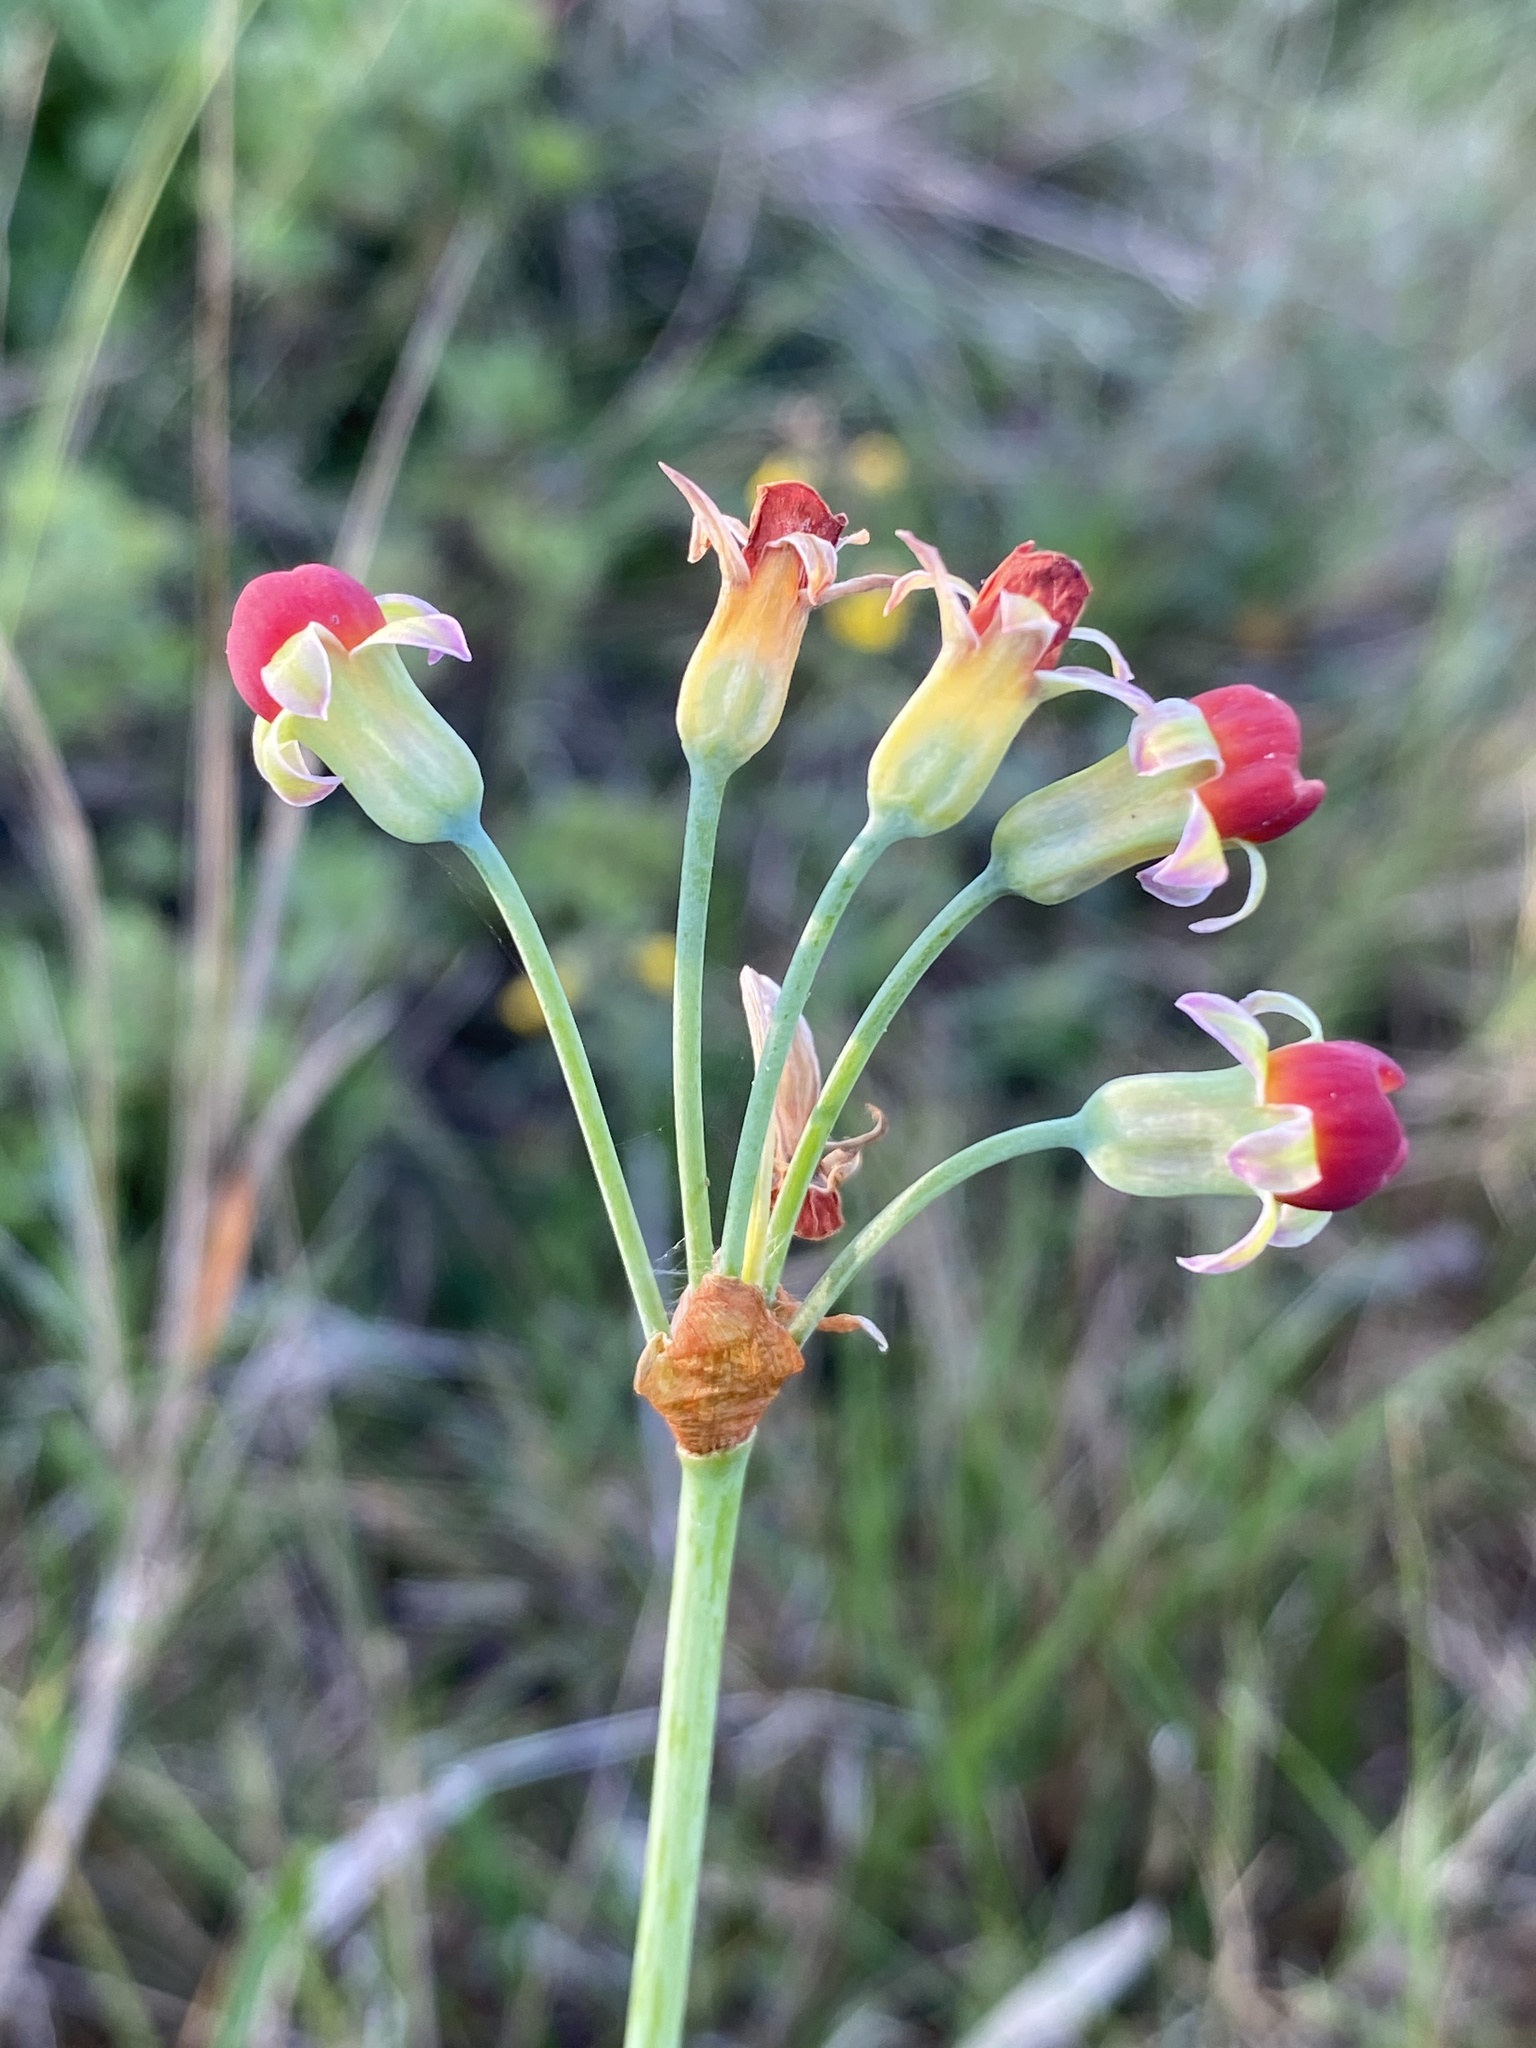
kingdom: Plantae
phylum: Tracheophyta
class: Liliopsida
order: Asparagales
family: Amaryllidaceae
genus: Tulbaghia
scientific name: Tulbaghia alliacea
